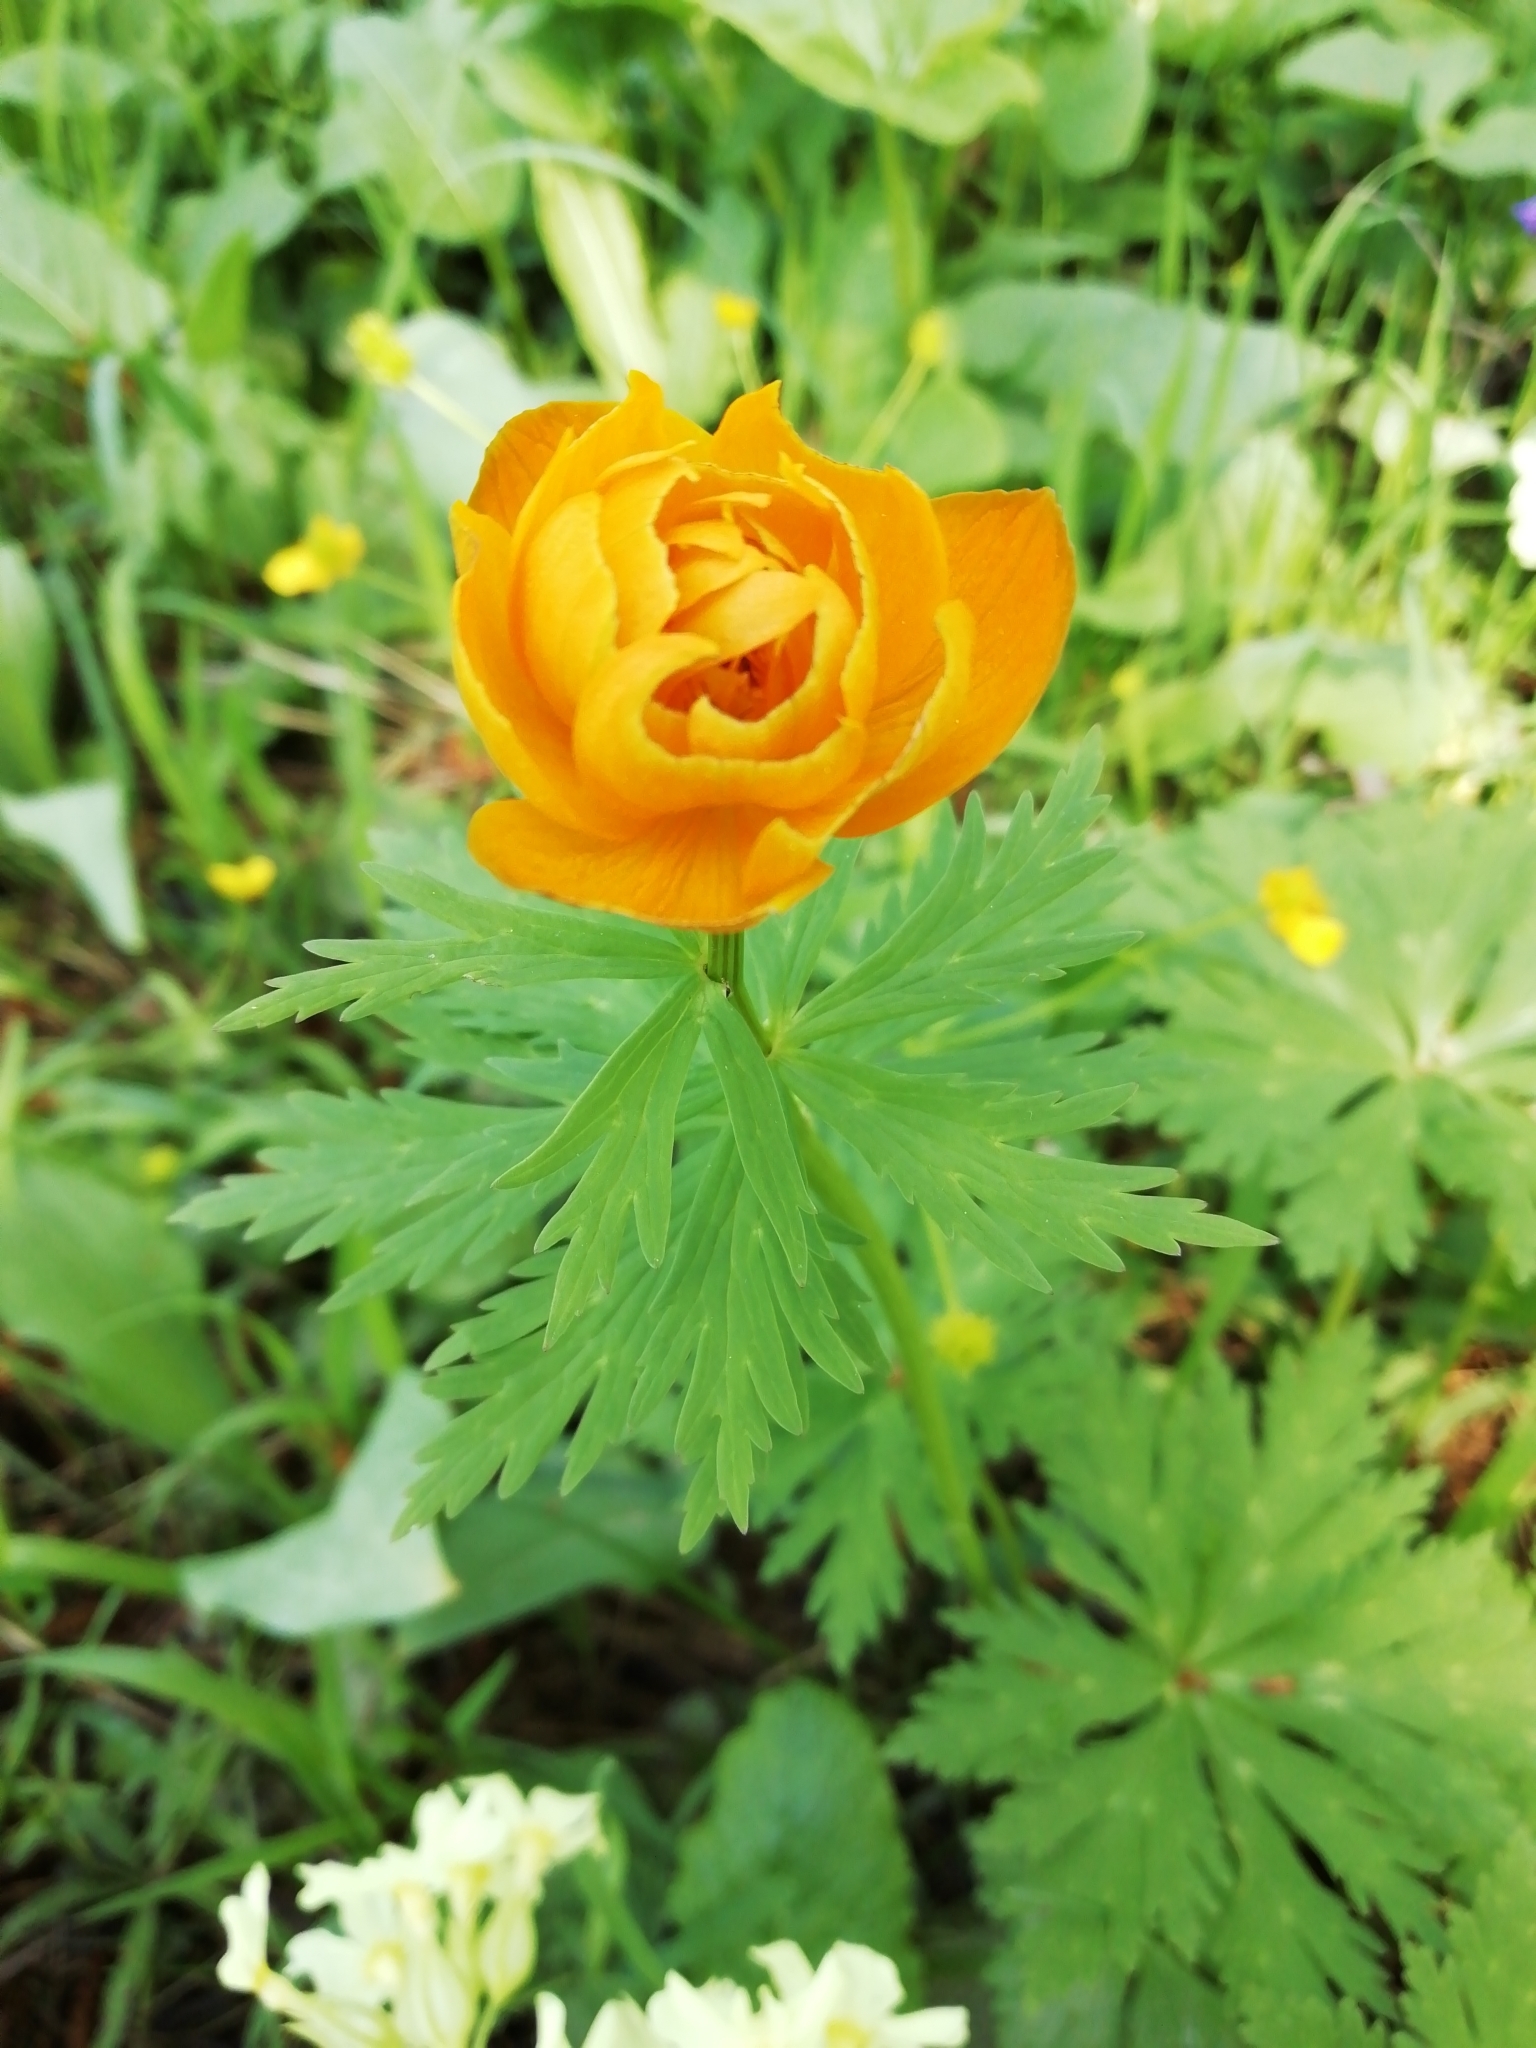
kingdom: Plantae
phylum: Tracheophyta
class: Magnoliopsida
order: Ranunculales
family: Ranunculaceae
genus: Trollius
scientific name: Trollius asiaticus
